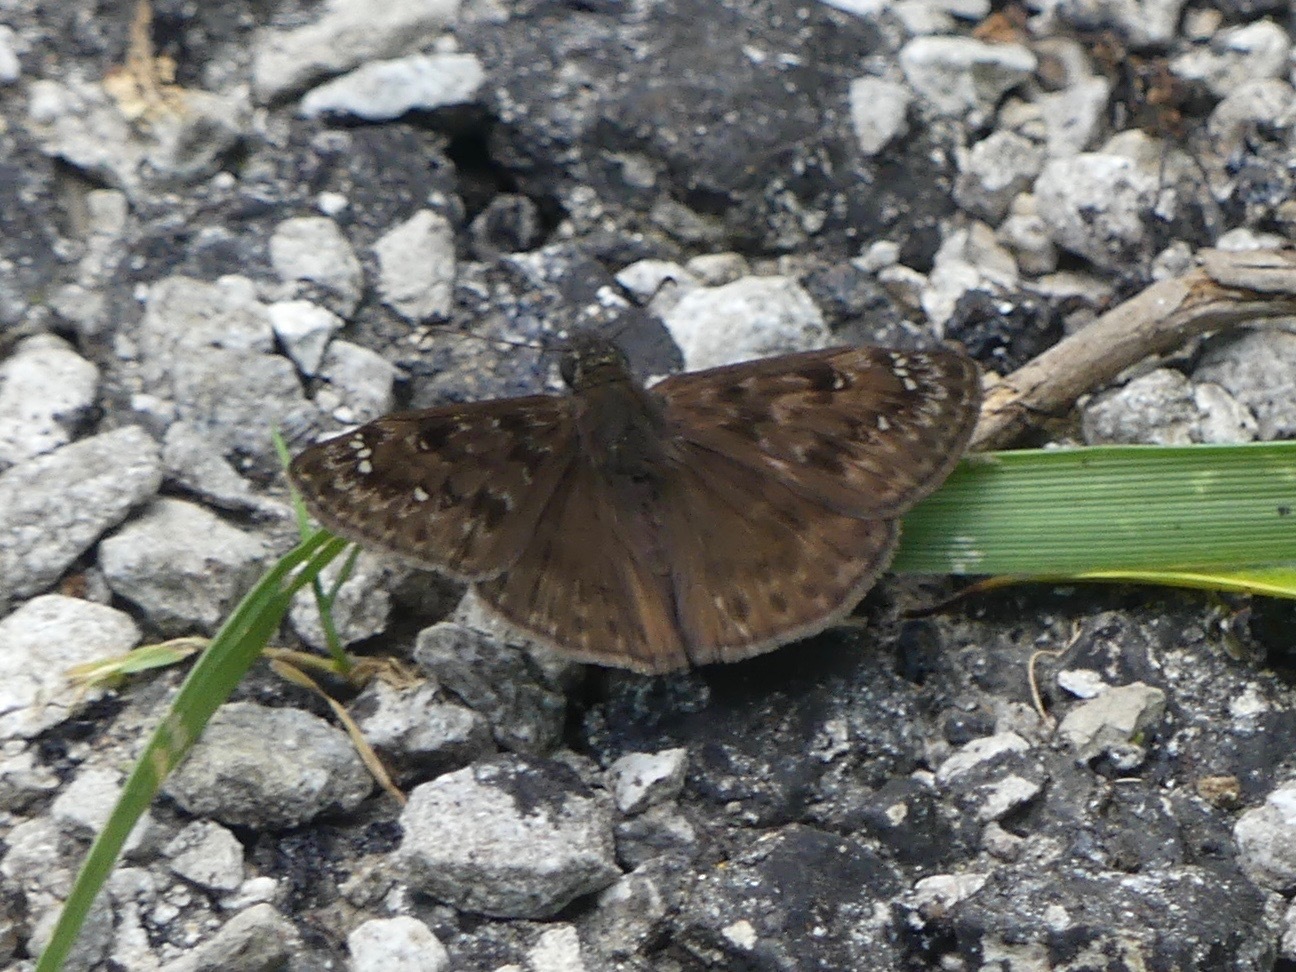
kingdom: Animalia
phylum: Arthropoda
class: Insecta
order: Lepidoptera
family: Hesperiidae
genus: Erynnis
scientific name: Erynnis horatius
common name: Horace's duskywing
